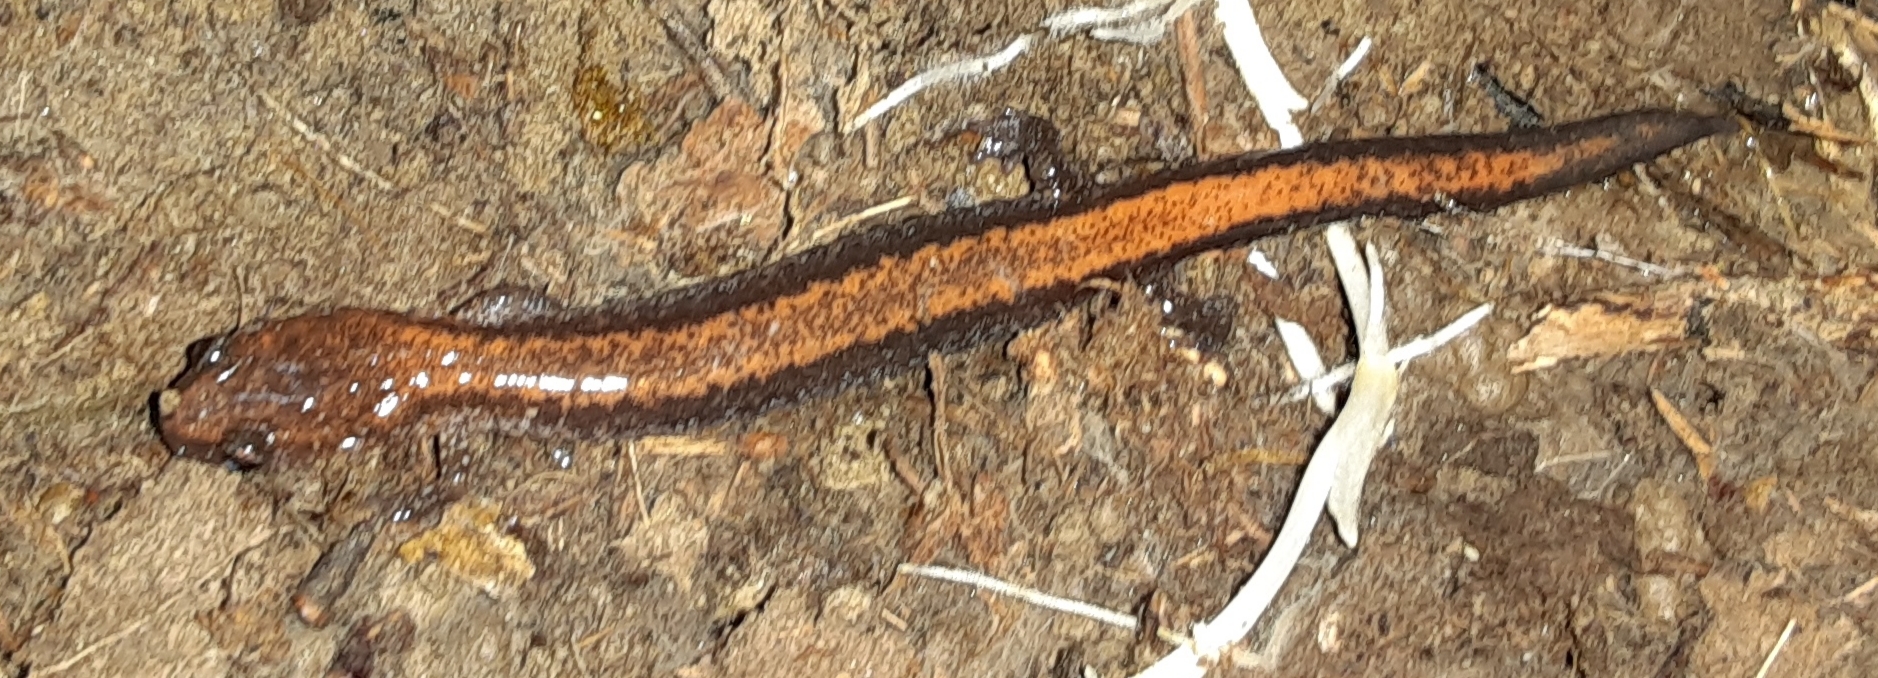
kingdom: Animalia
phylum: Chordata
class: Amphibia
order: Caudata
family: Plethodontidae
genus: Plethodon
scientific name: Plethodon cinereus
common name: Redback salamander
